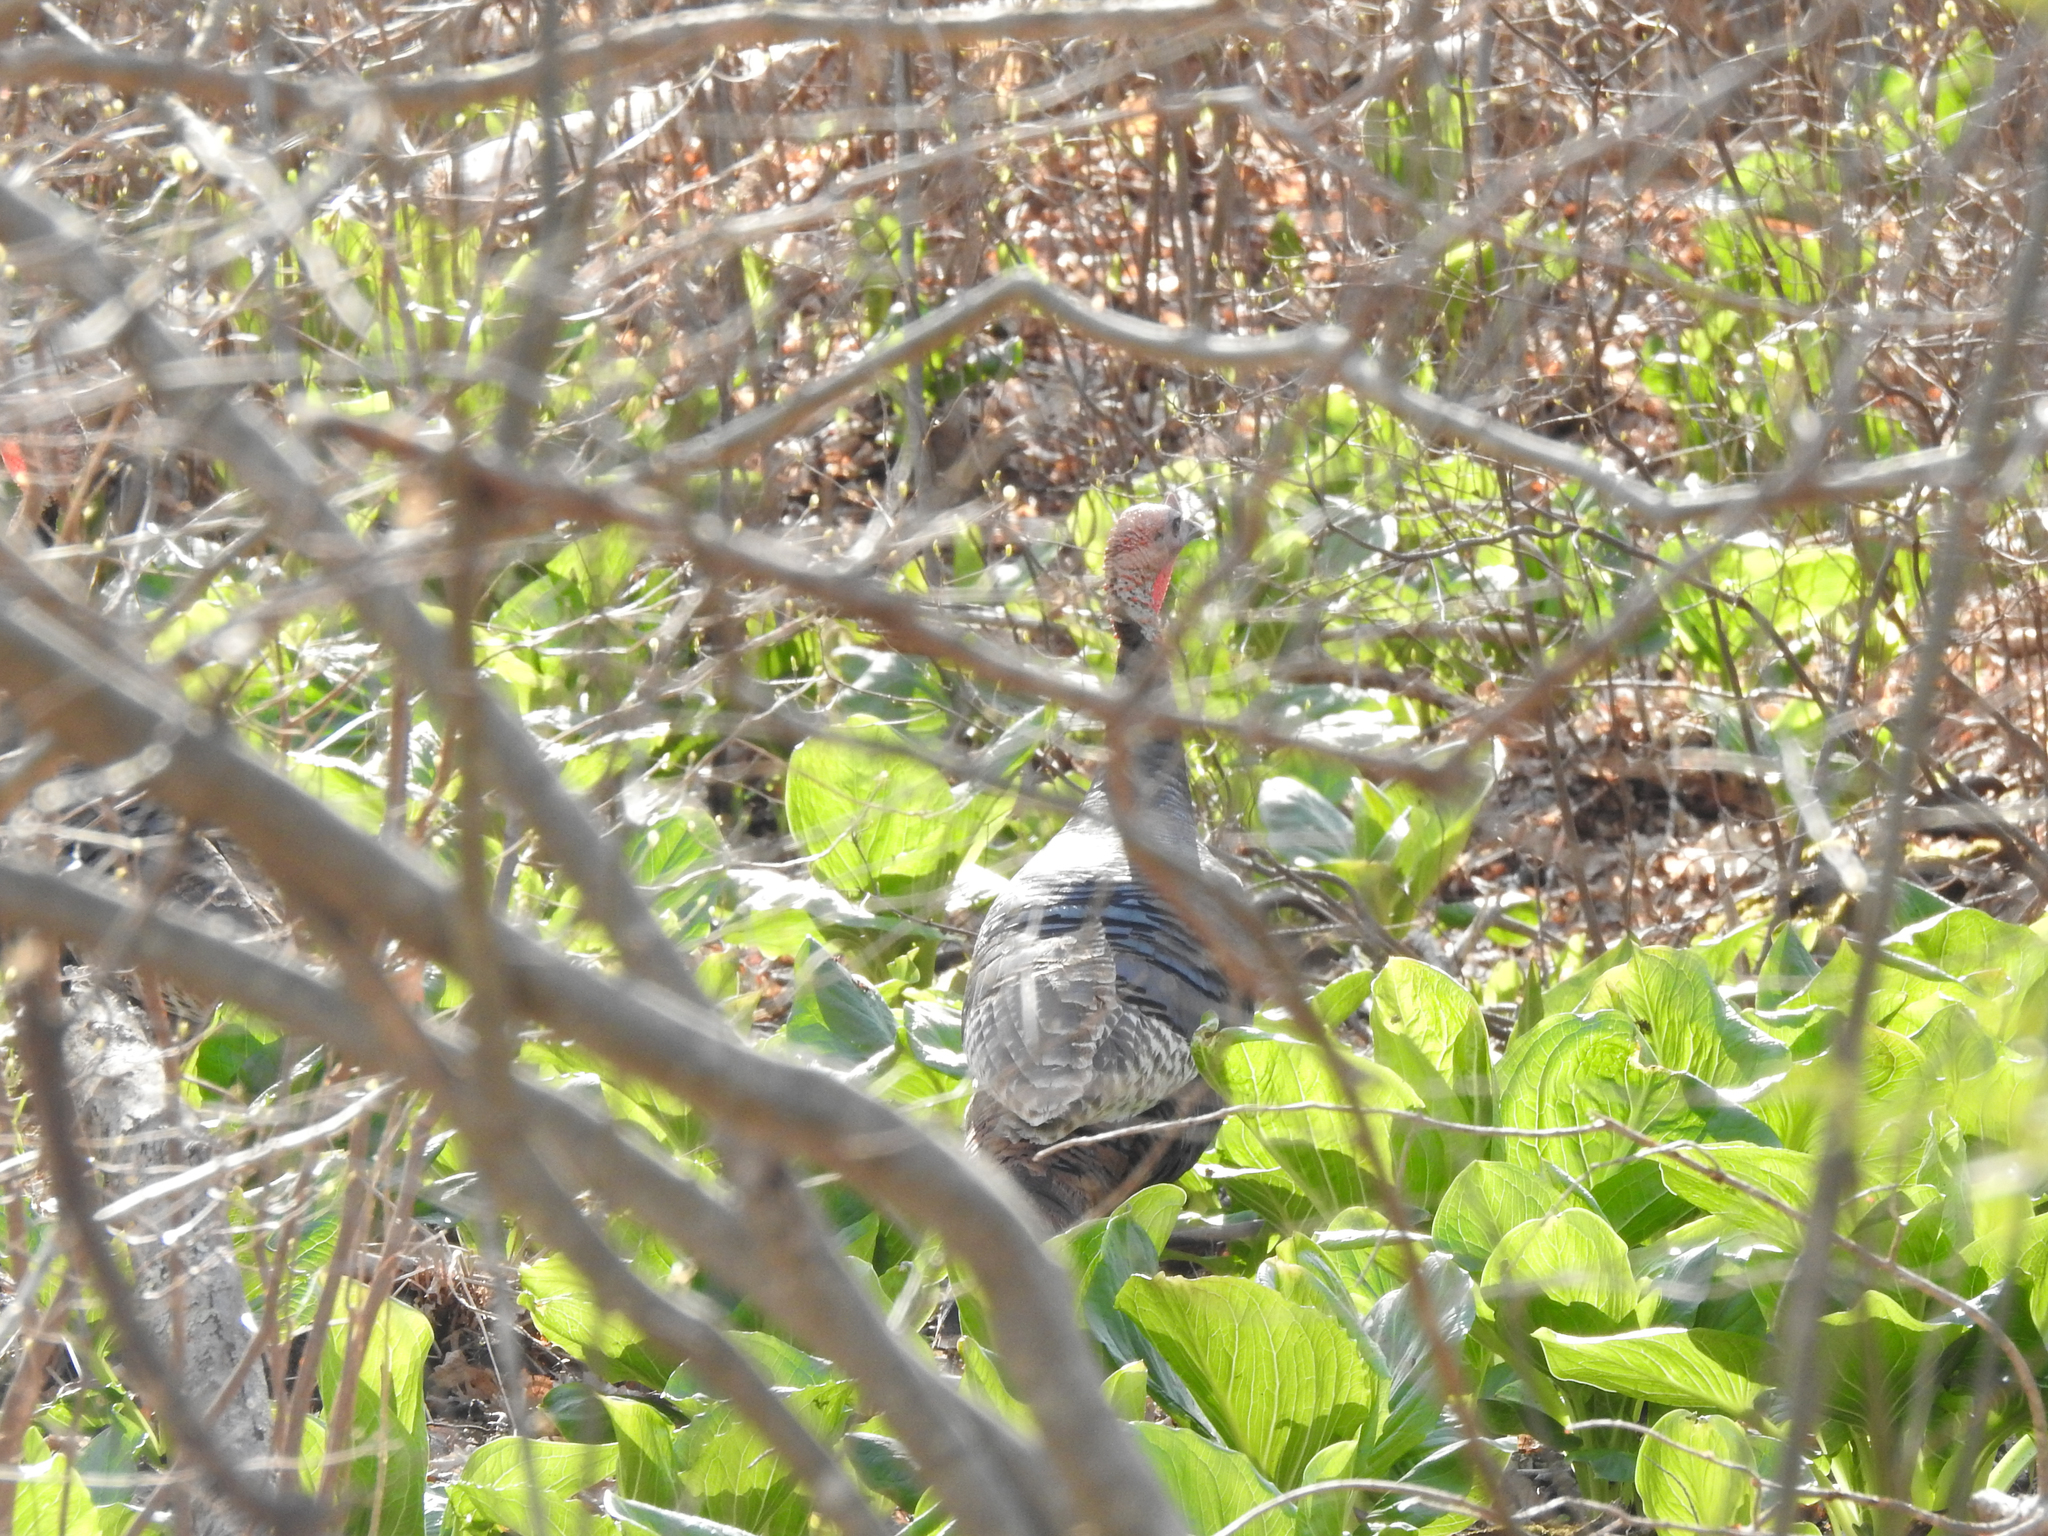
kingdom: Animalia
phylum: Chordata
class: Aves
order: Galliformes
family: Phasianidae
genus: Meleagris
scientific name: Meleagris gallopavo
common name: Wild turkey
